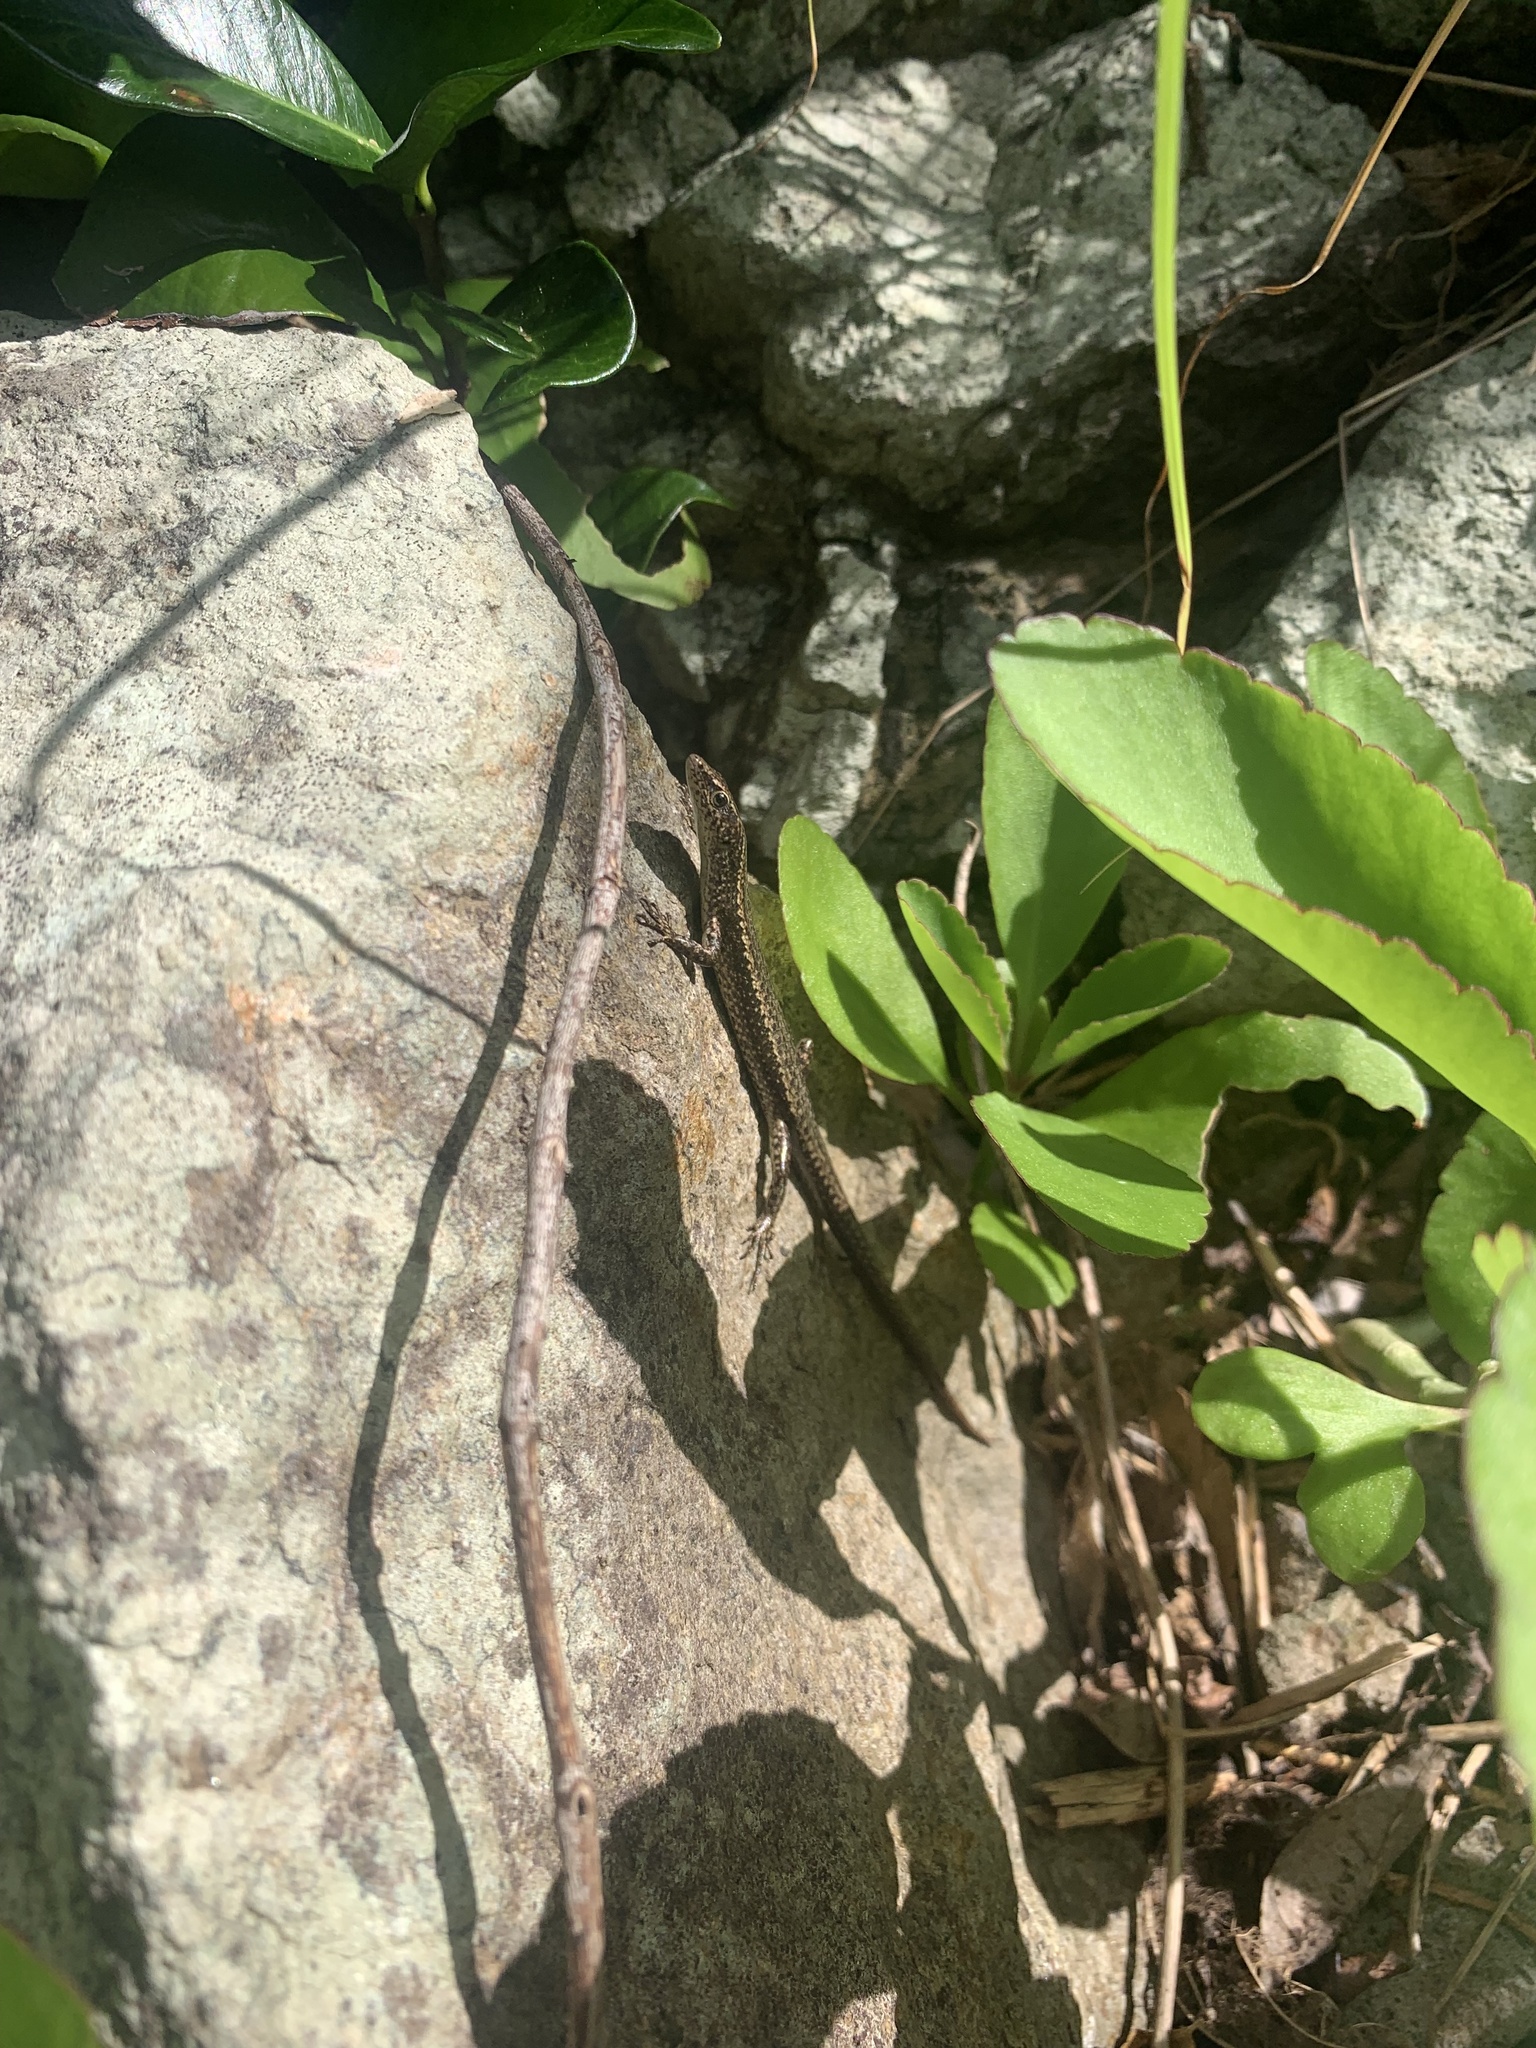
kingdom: Animalia
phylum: Chordata
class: Squamata
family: Scincidae
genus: Cryptoblepharus
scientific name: Cryptoblepharus nigropunctatus
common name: Snake-eyed skink
